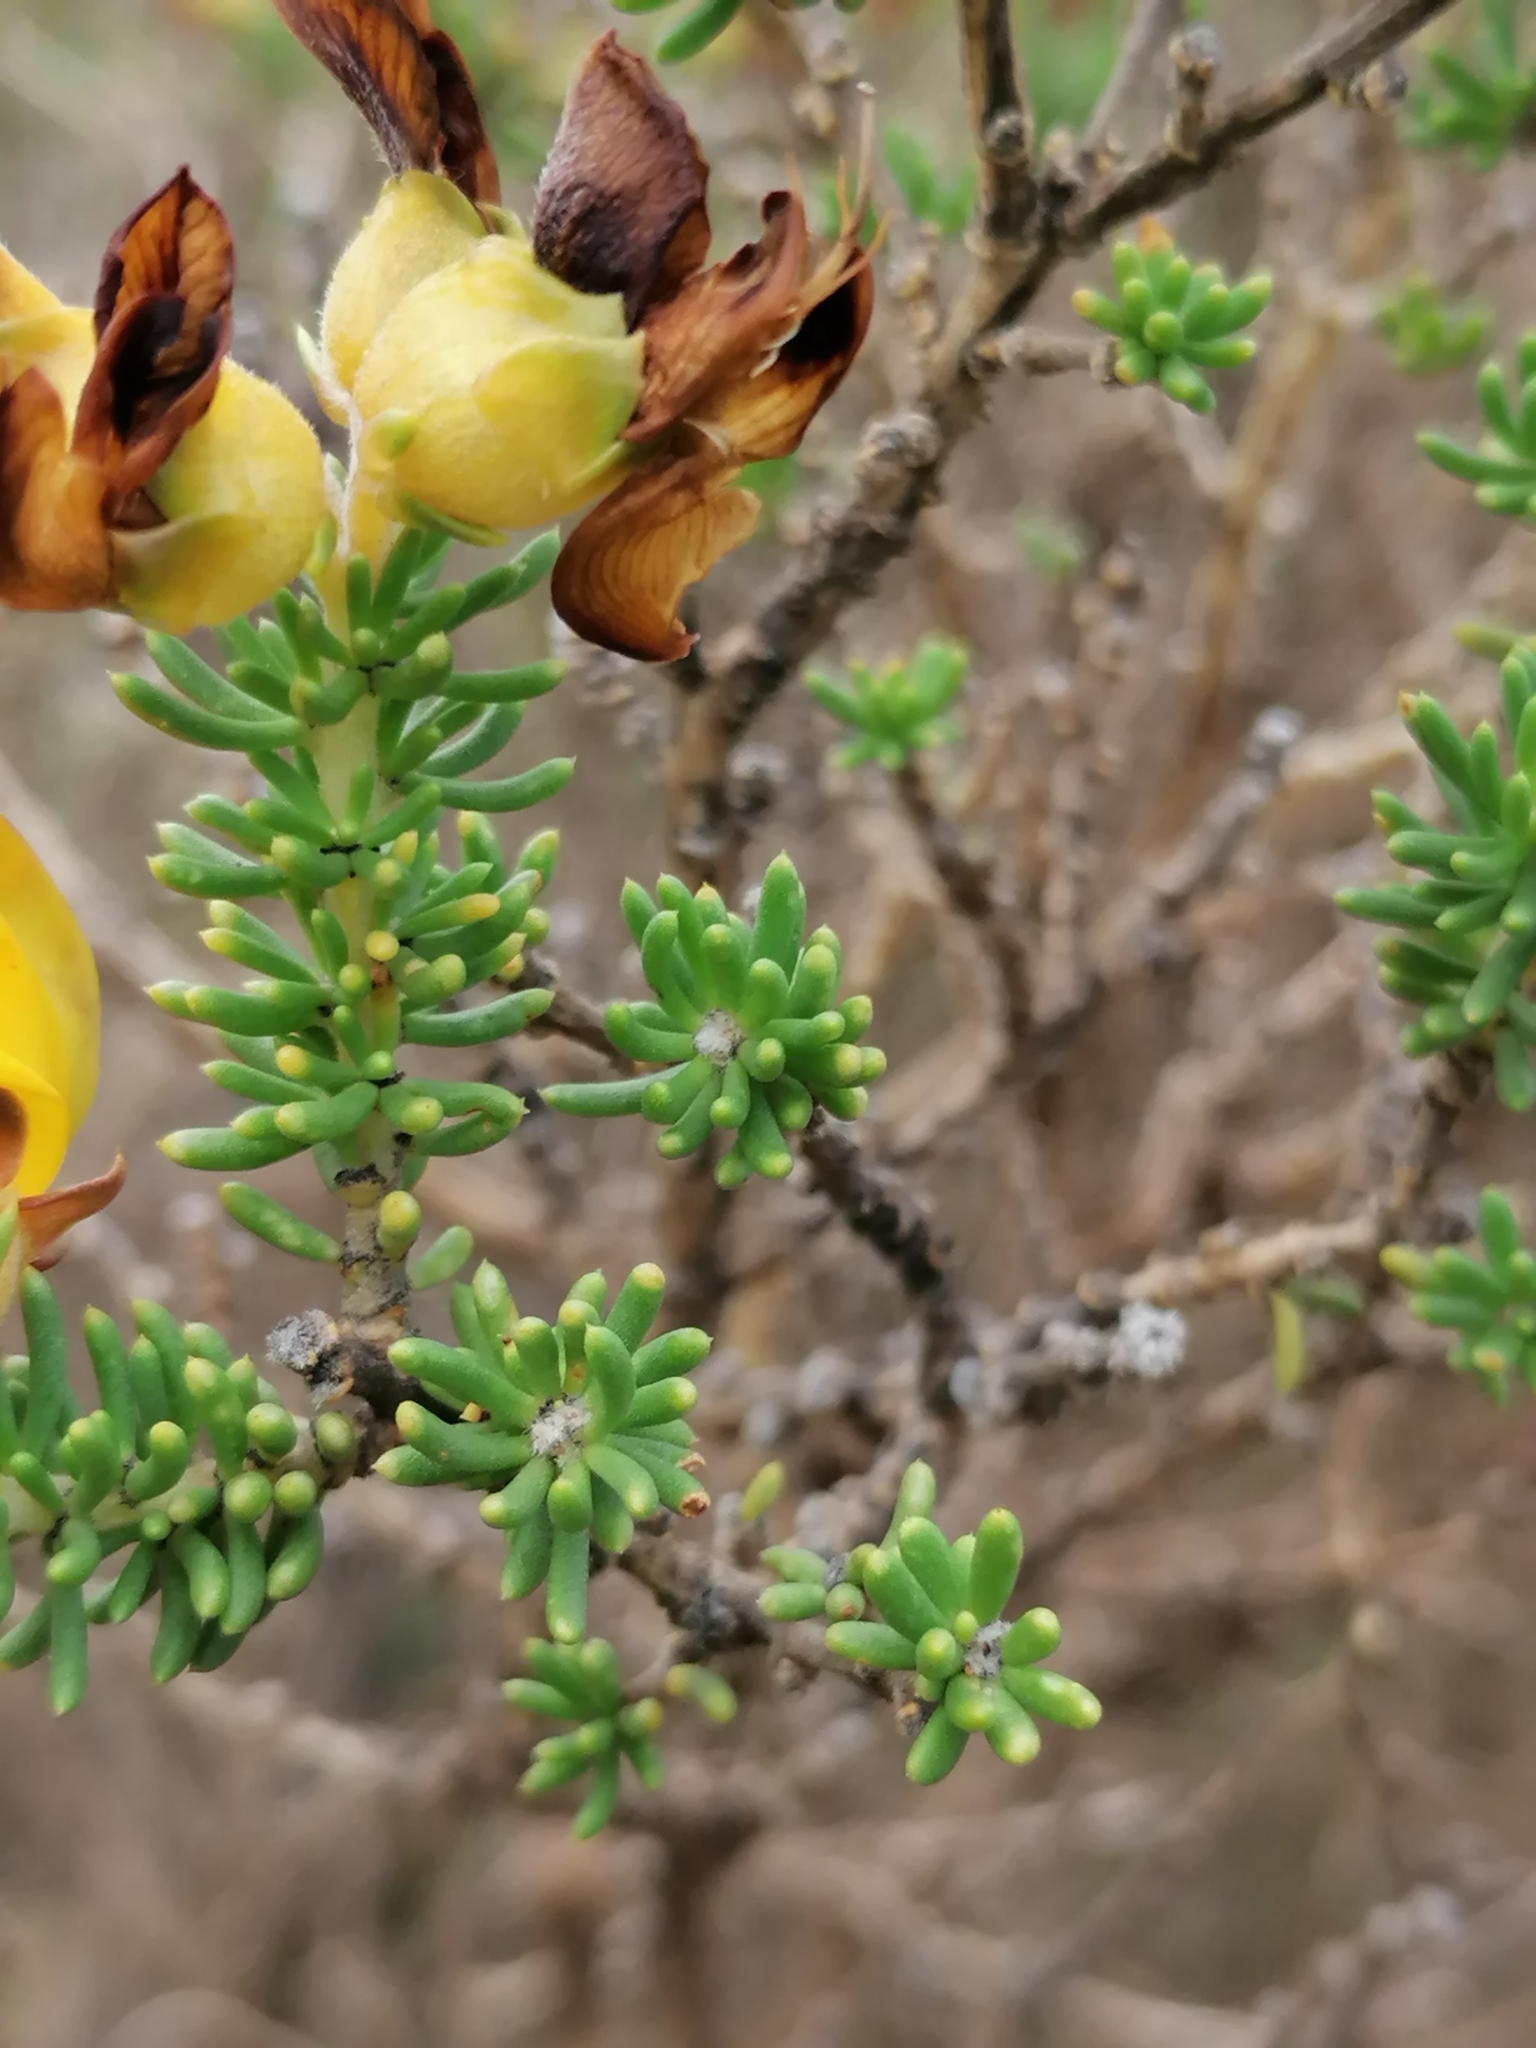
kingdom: Plantae
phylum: Tracheophyta
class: Magnoliopsida
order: Fabales
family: Fabaceae
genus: Aspalathus
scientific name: Aspalathus carnosa
